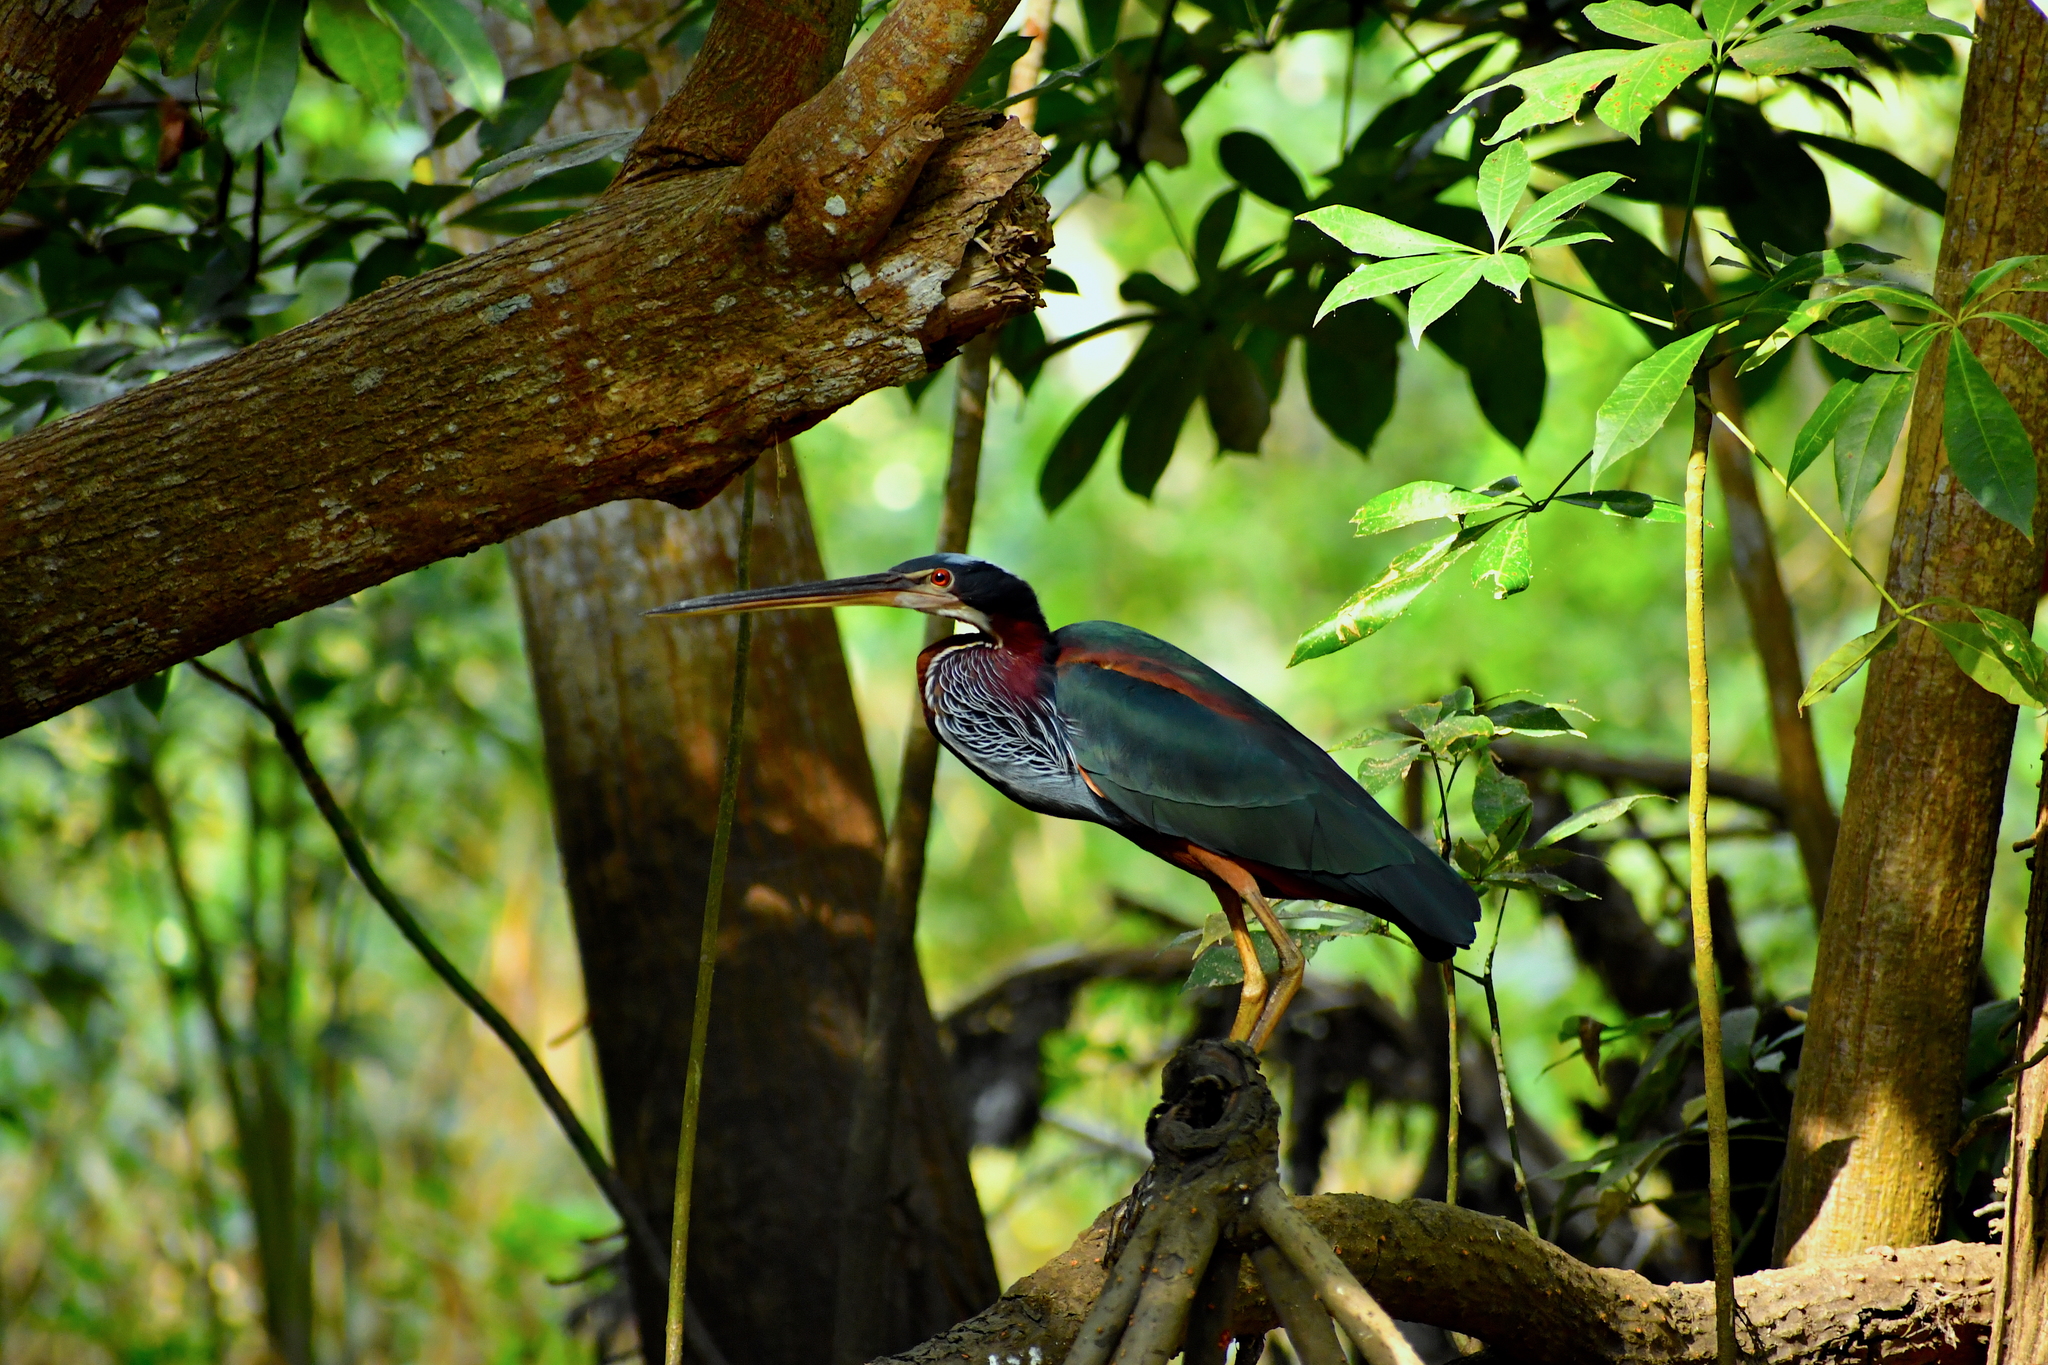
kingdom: Animalia
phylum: Chordata
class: Aves
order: Pelecaniformes
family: Ardeidae
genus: Agamia
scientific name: Agamia agami
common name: Agami heron
